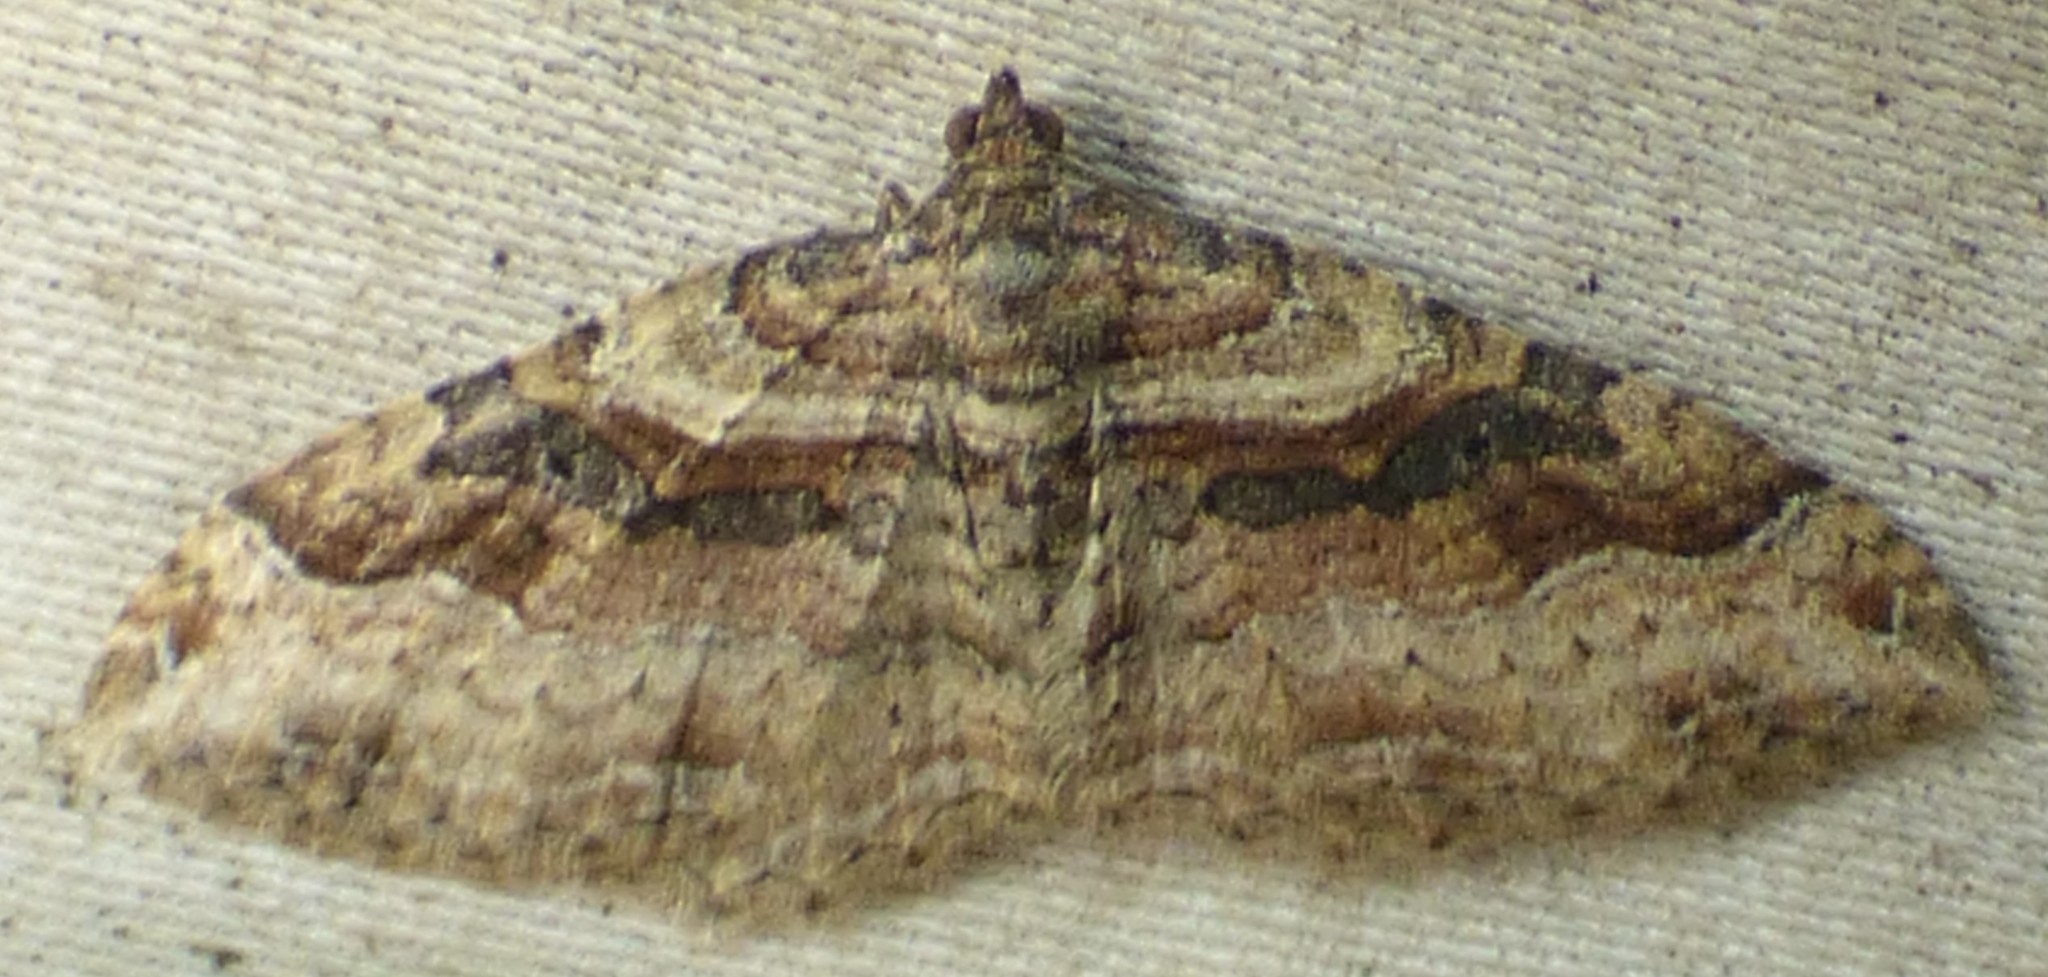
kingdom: Animalia
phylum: Arthropoda
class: Insecta
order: Lepidoptera
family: Geometridae
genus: Costaconvexa
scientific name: Costaconvexa centrostrigaria
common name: Bent-line carpet
